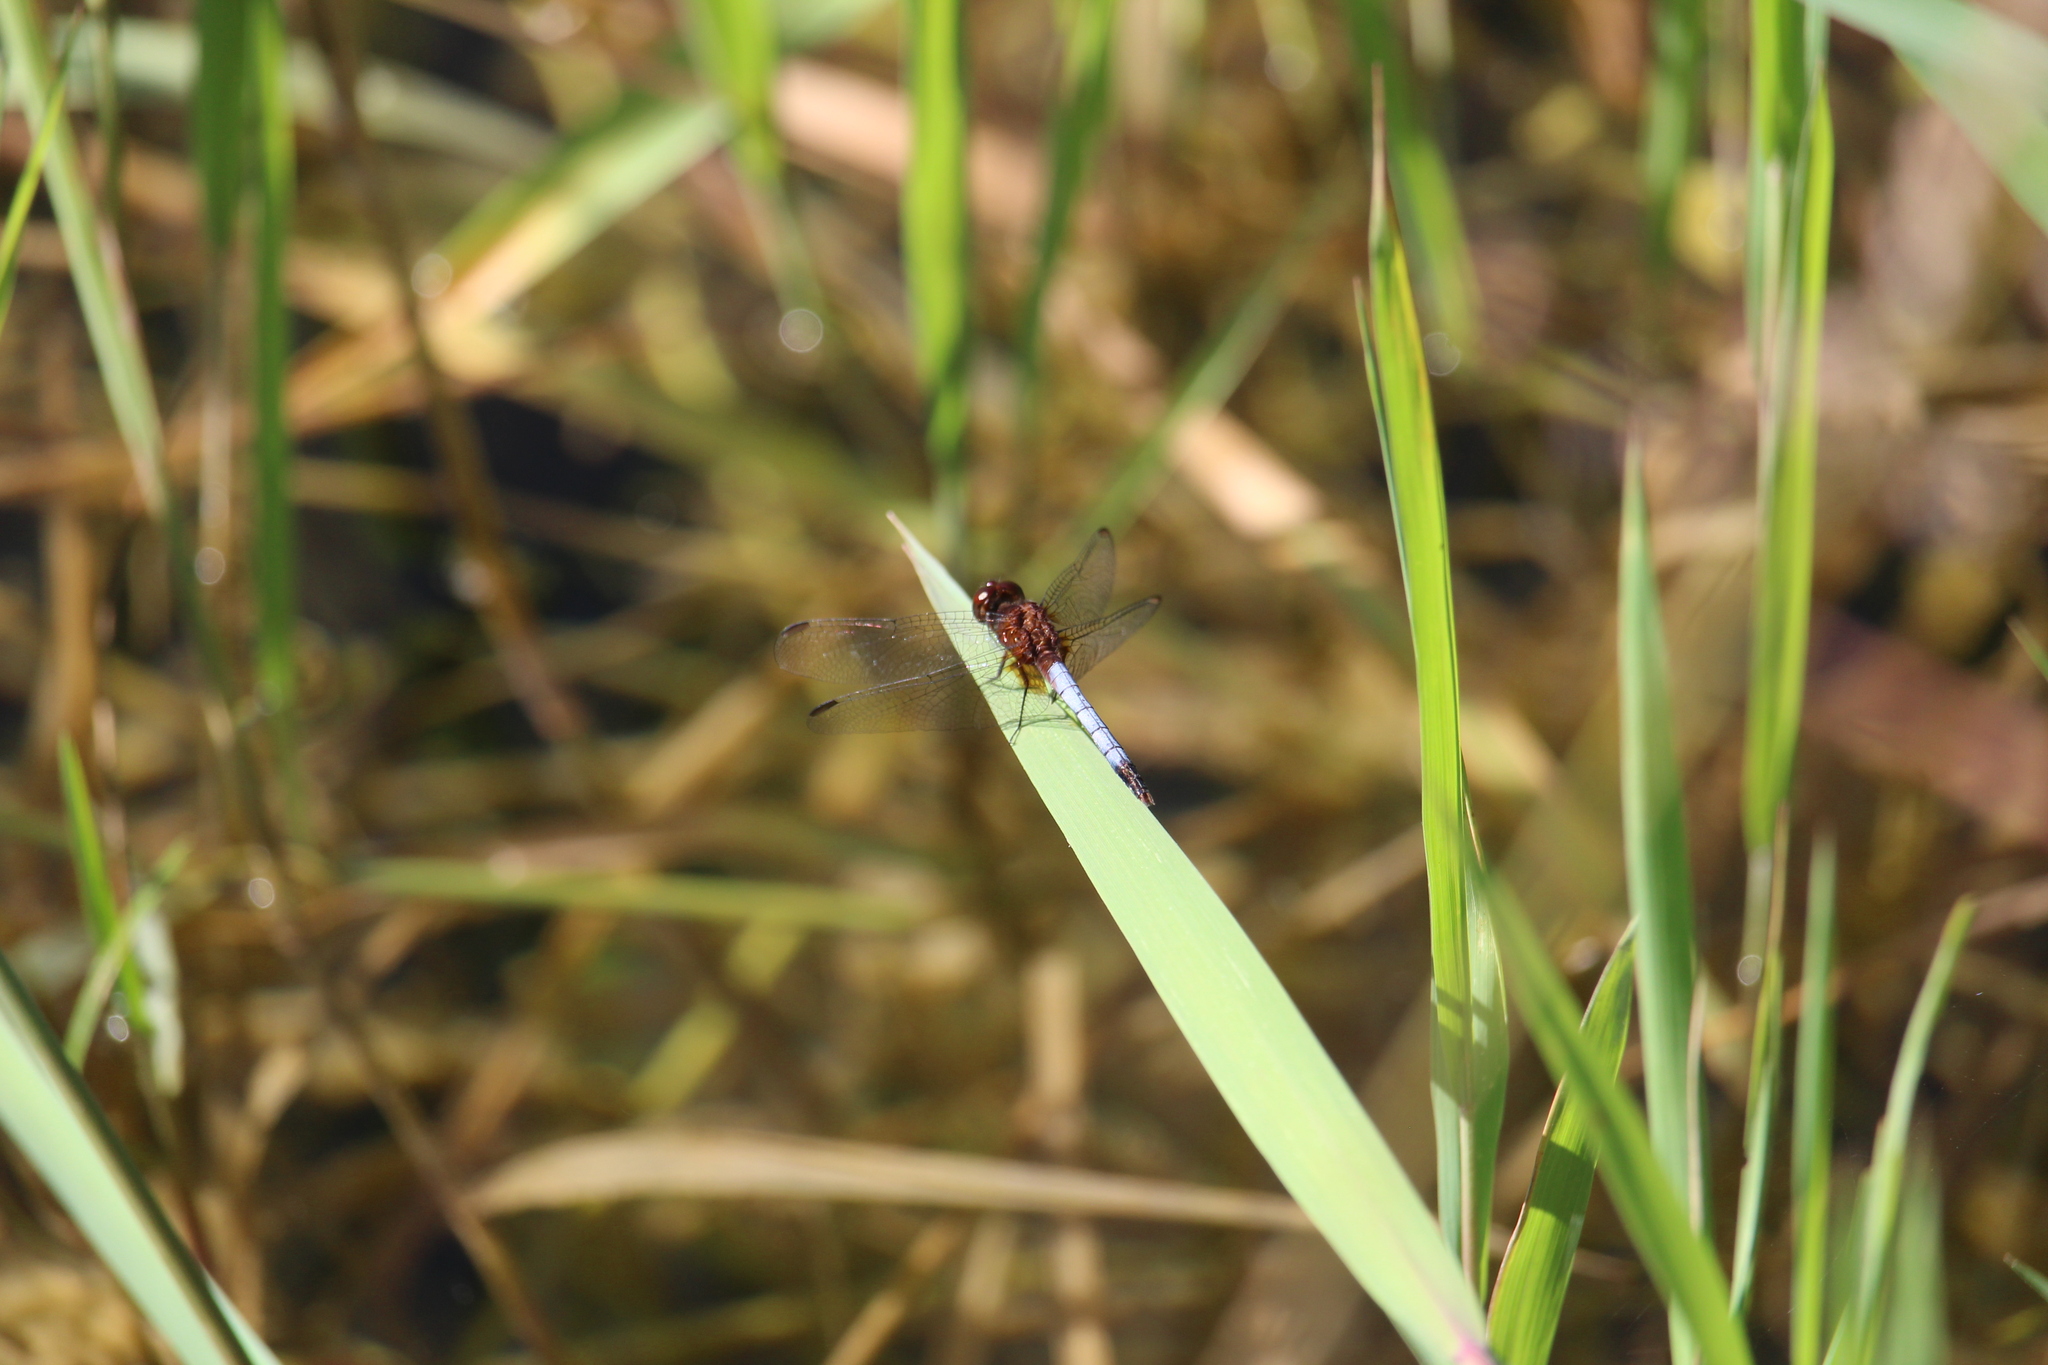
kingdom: Animalia
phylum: Arthropoda
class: Insecta
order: Odonata
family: Libellulidae
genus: Erythrodiplax
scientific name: Erythrodiplax fusca
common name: Red-faced dragonlet
